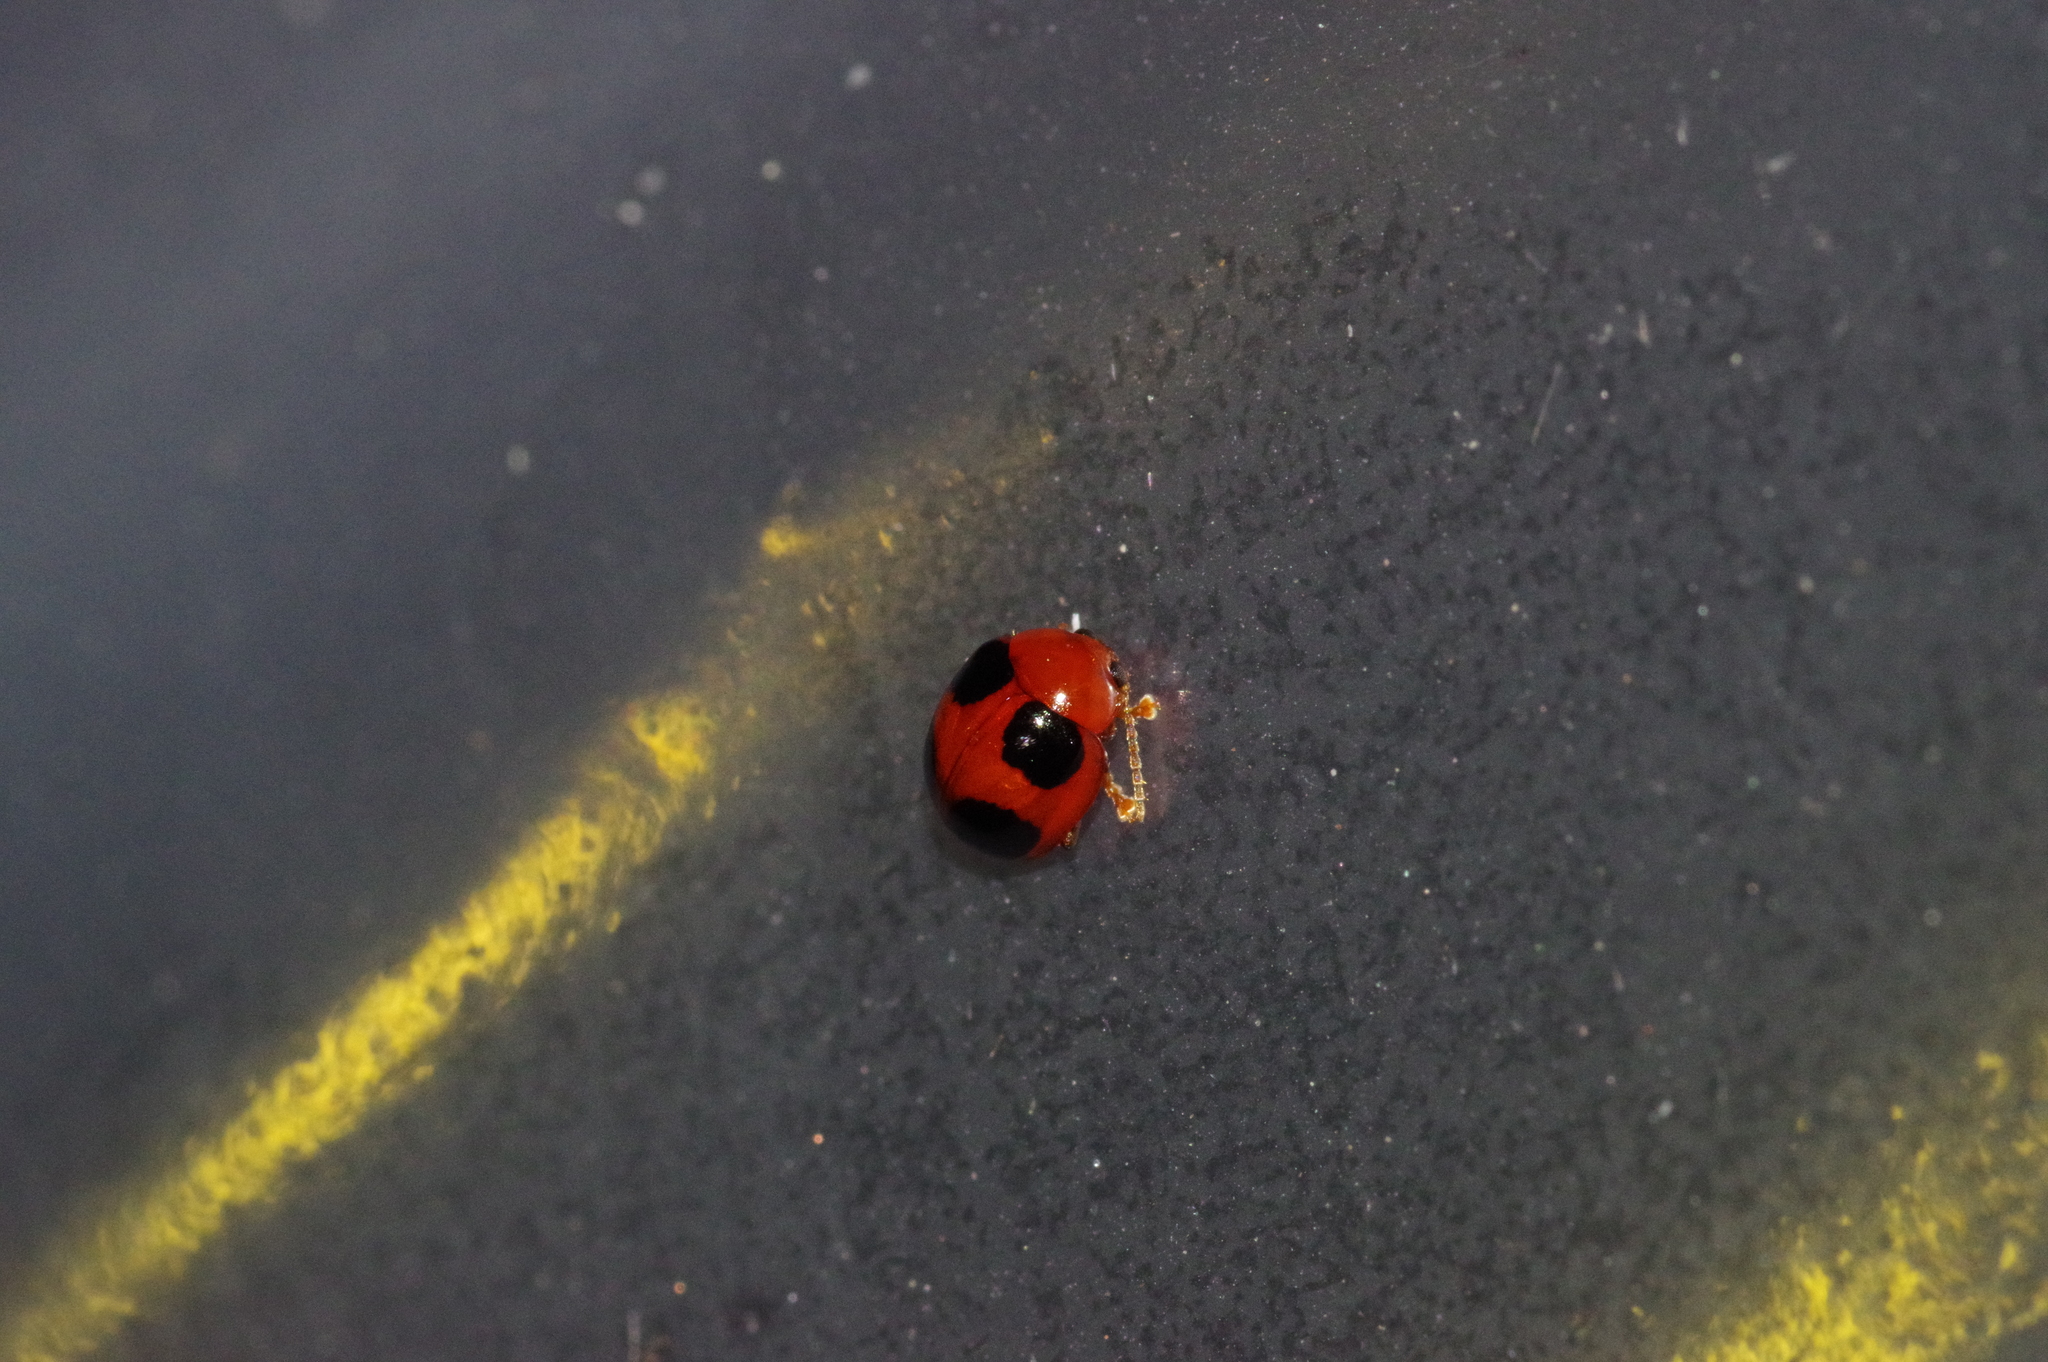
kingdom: Animalia
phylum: Arthropoda
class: Insecta
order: Coleoptera
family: Chrysomelidae
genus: Sphaeroderma
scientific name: Sphaeroderma
